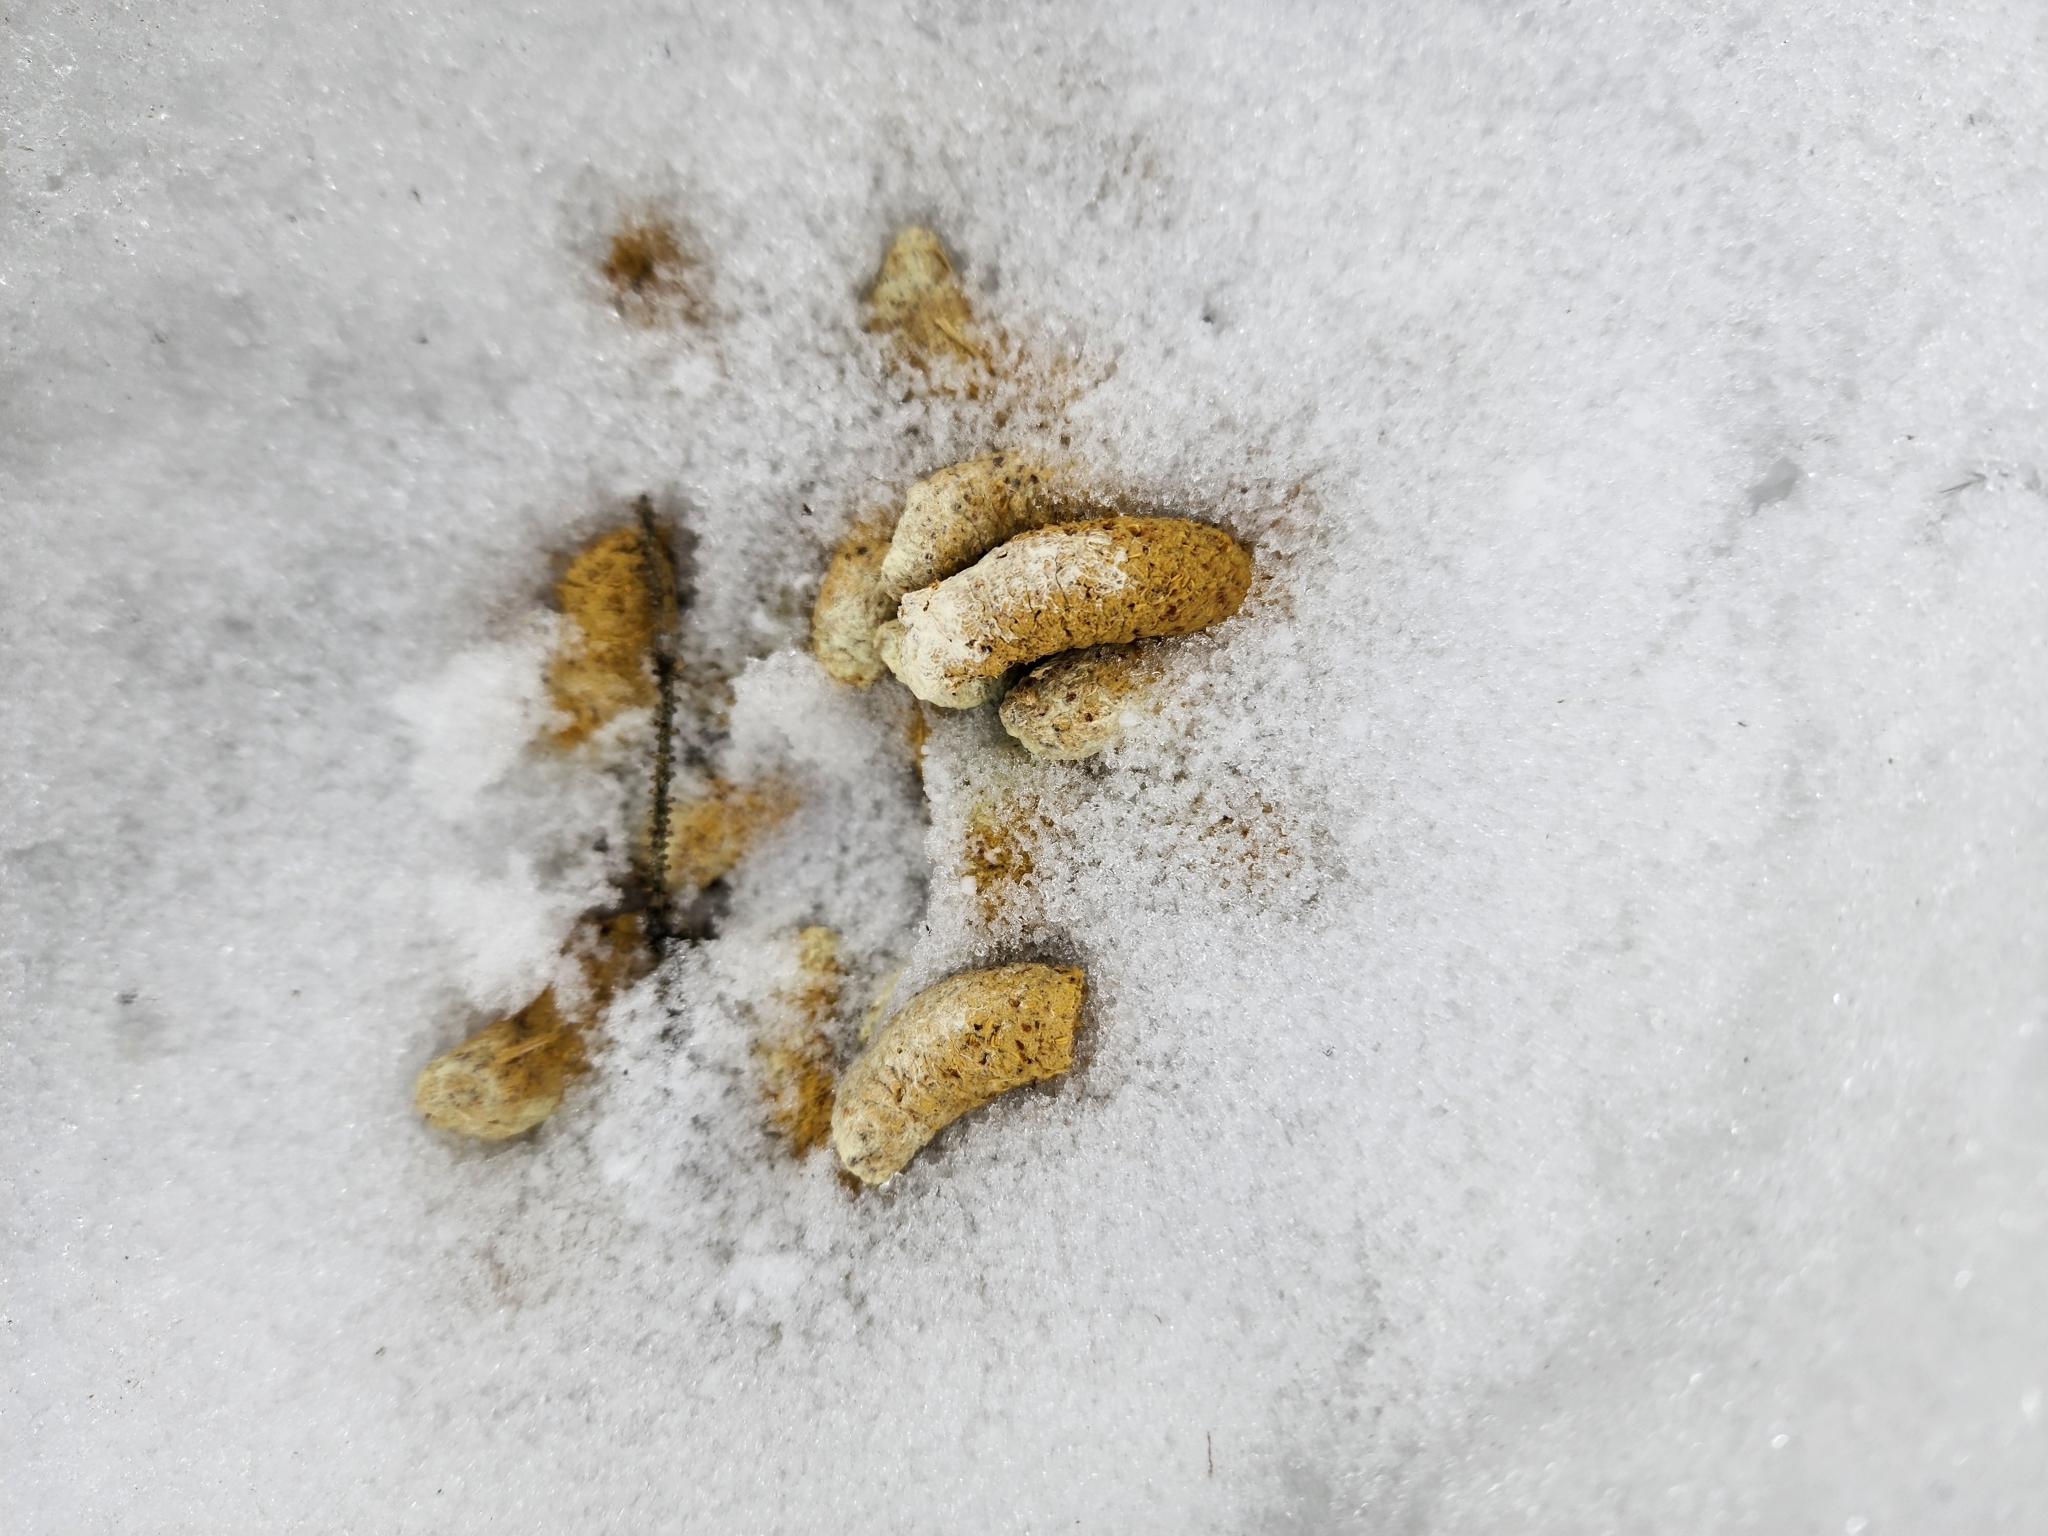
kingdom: Animalia
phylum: Chordata
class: Aves
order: Galliformes
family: Phasianidae
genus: Bonasa
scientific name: Bonasa umbellus
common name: Ruffed grouse
